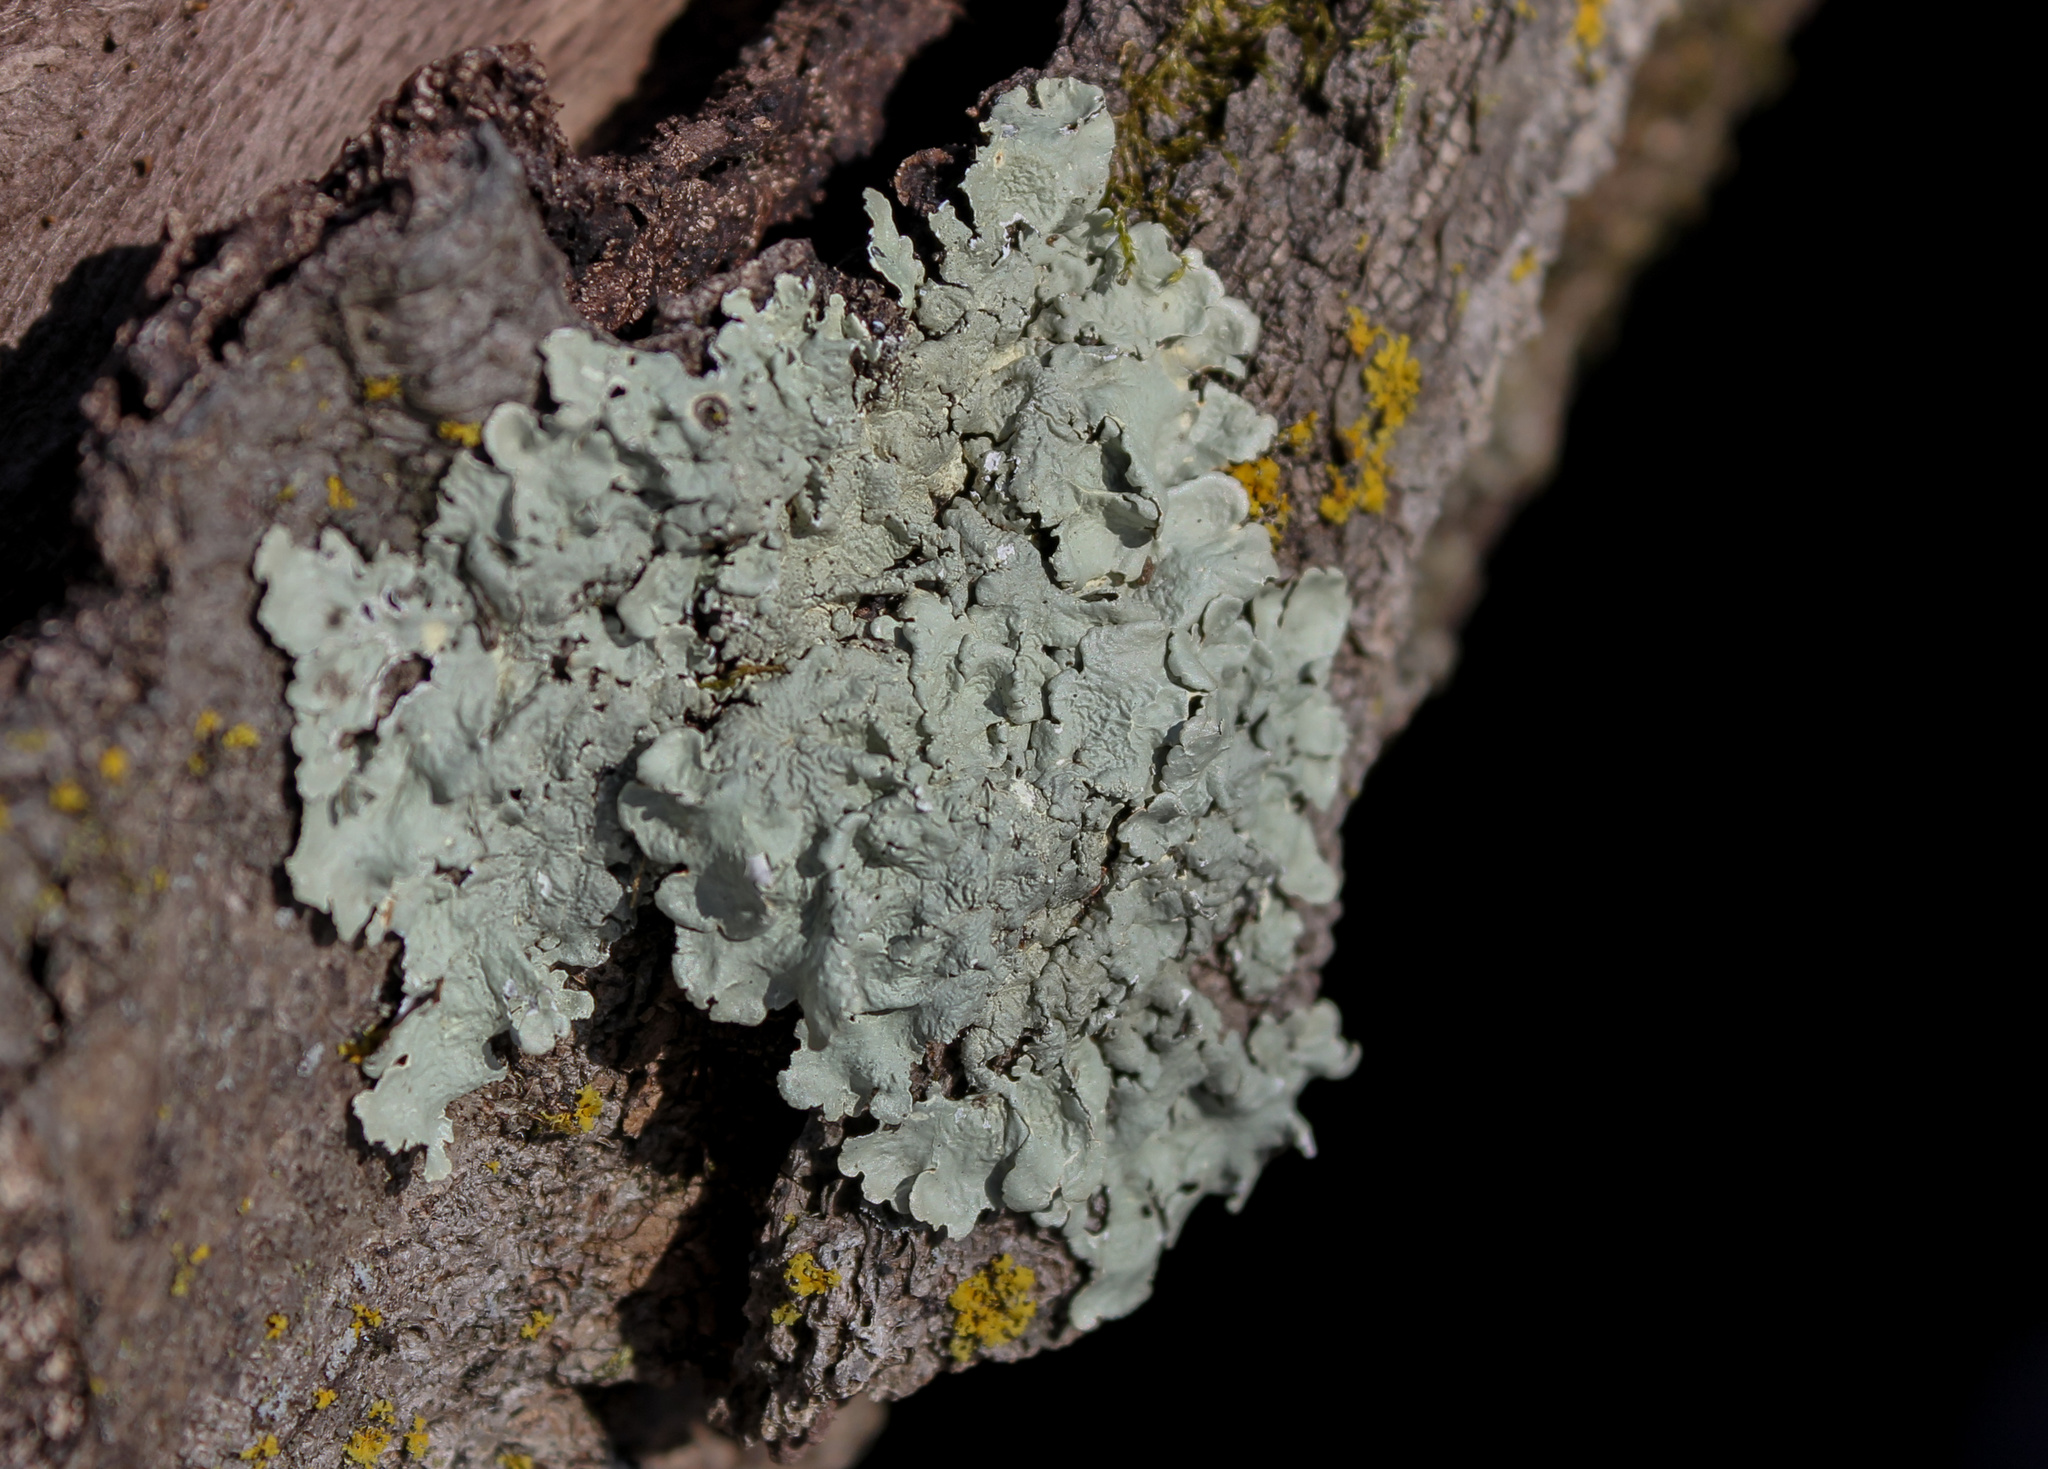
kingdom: Fungi
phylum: Ascomycota
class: Lecanoromycetes
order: Lecanorales
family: Parmeliaceae
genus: Flavoparmelia
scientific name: Flavoparmelia caperata
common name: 40-mile per hour lichen
